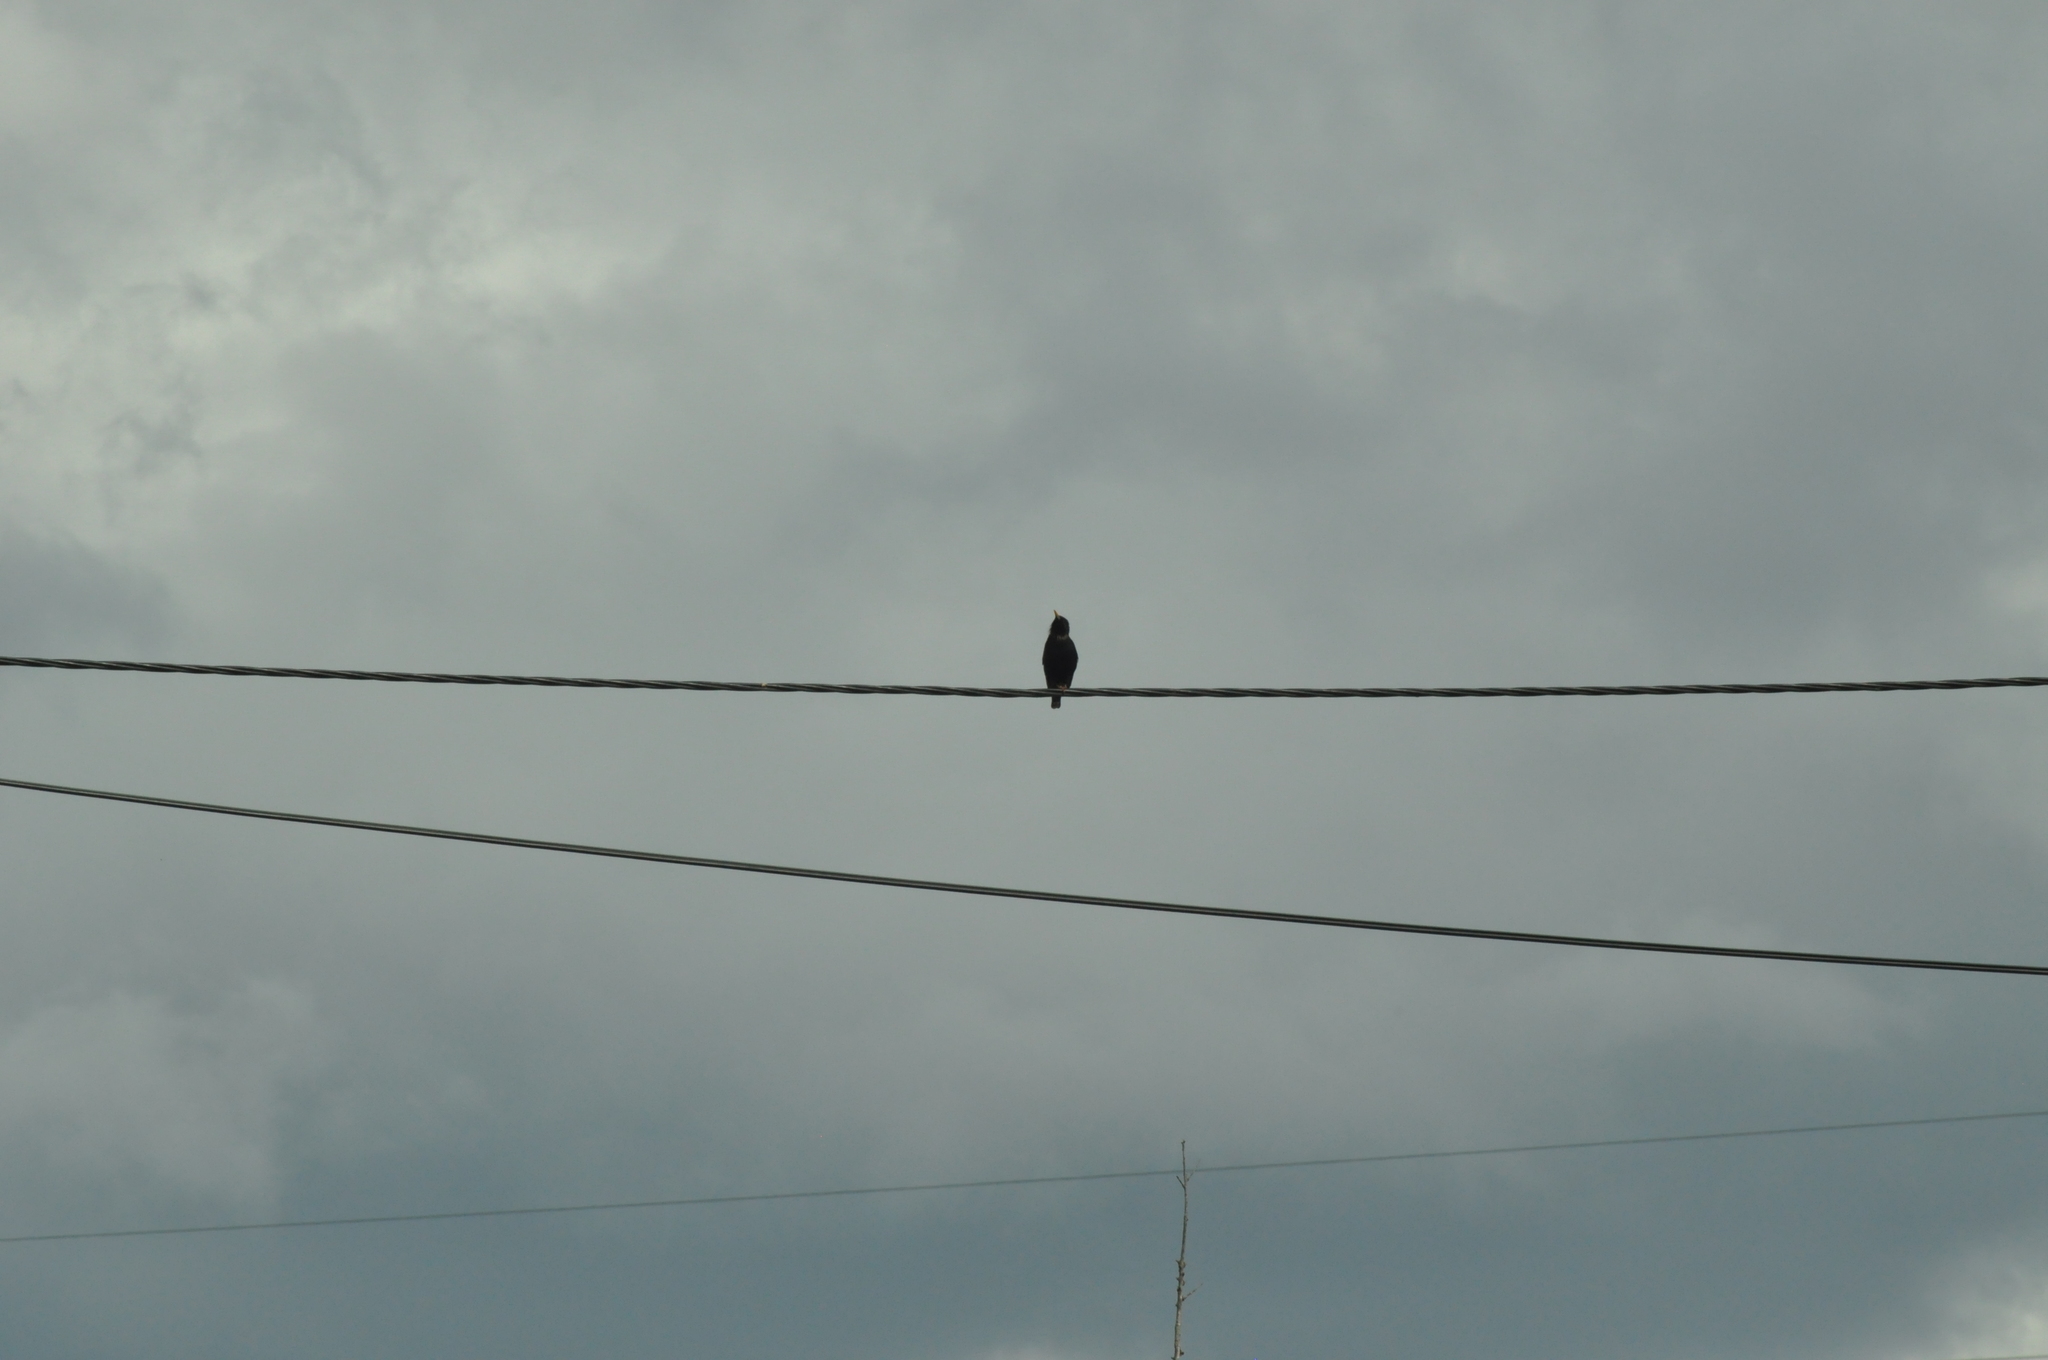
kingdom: Animalia
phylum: Chordata
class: Aves
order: Passeriformes
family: Sturnidae
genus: Sturnus
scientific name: Sturnus vulgaris
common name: Common starling
